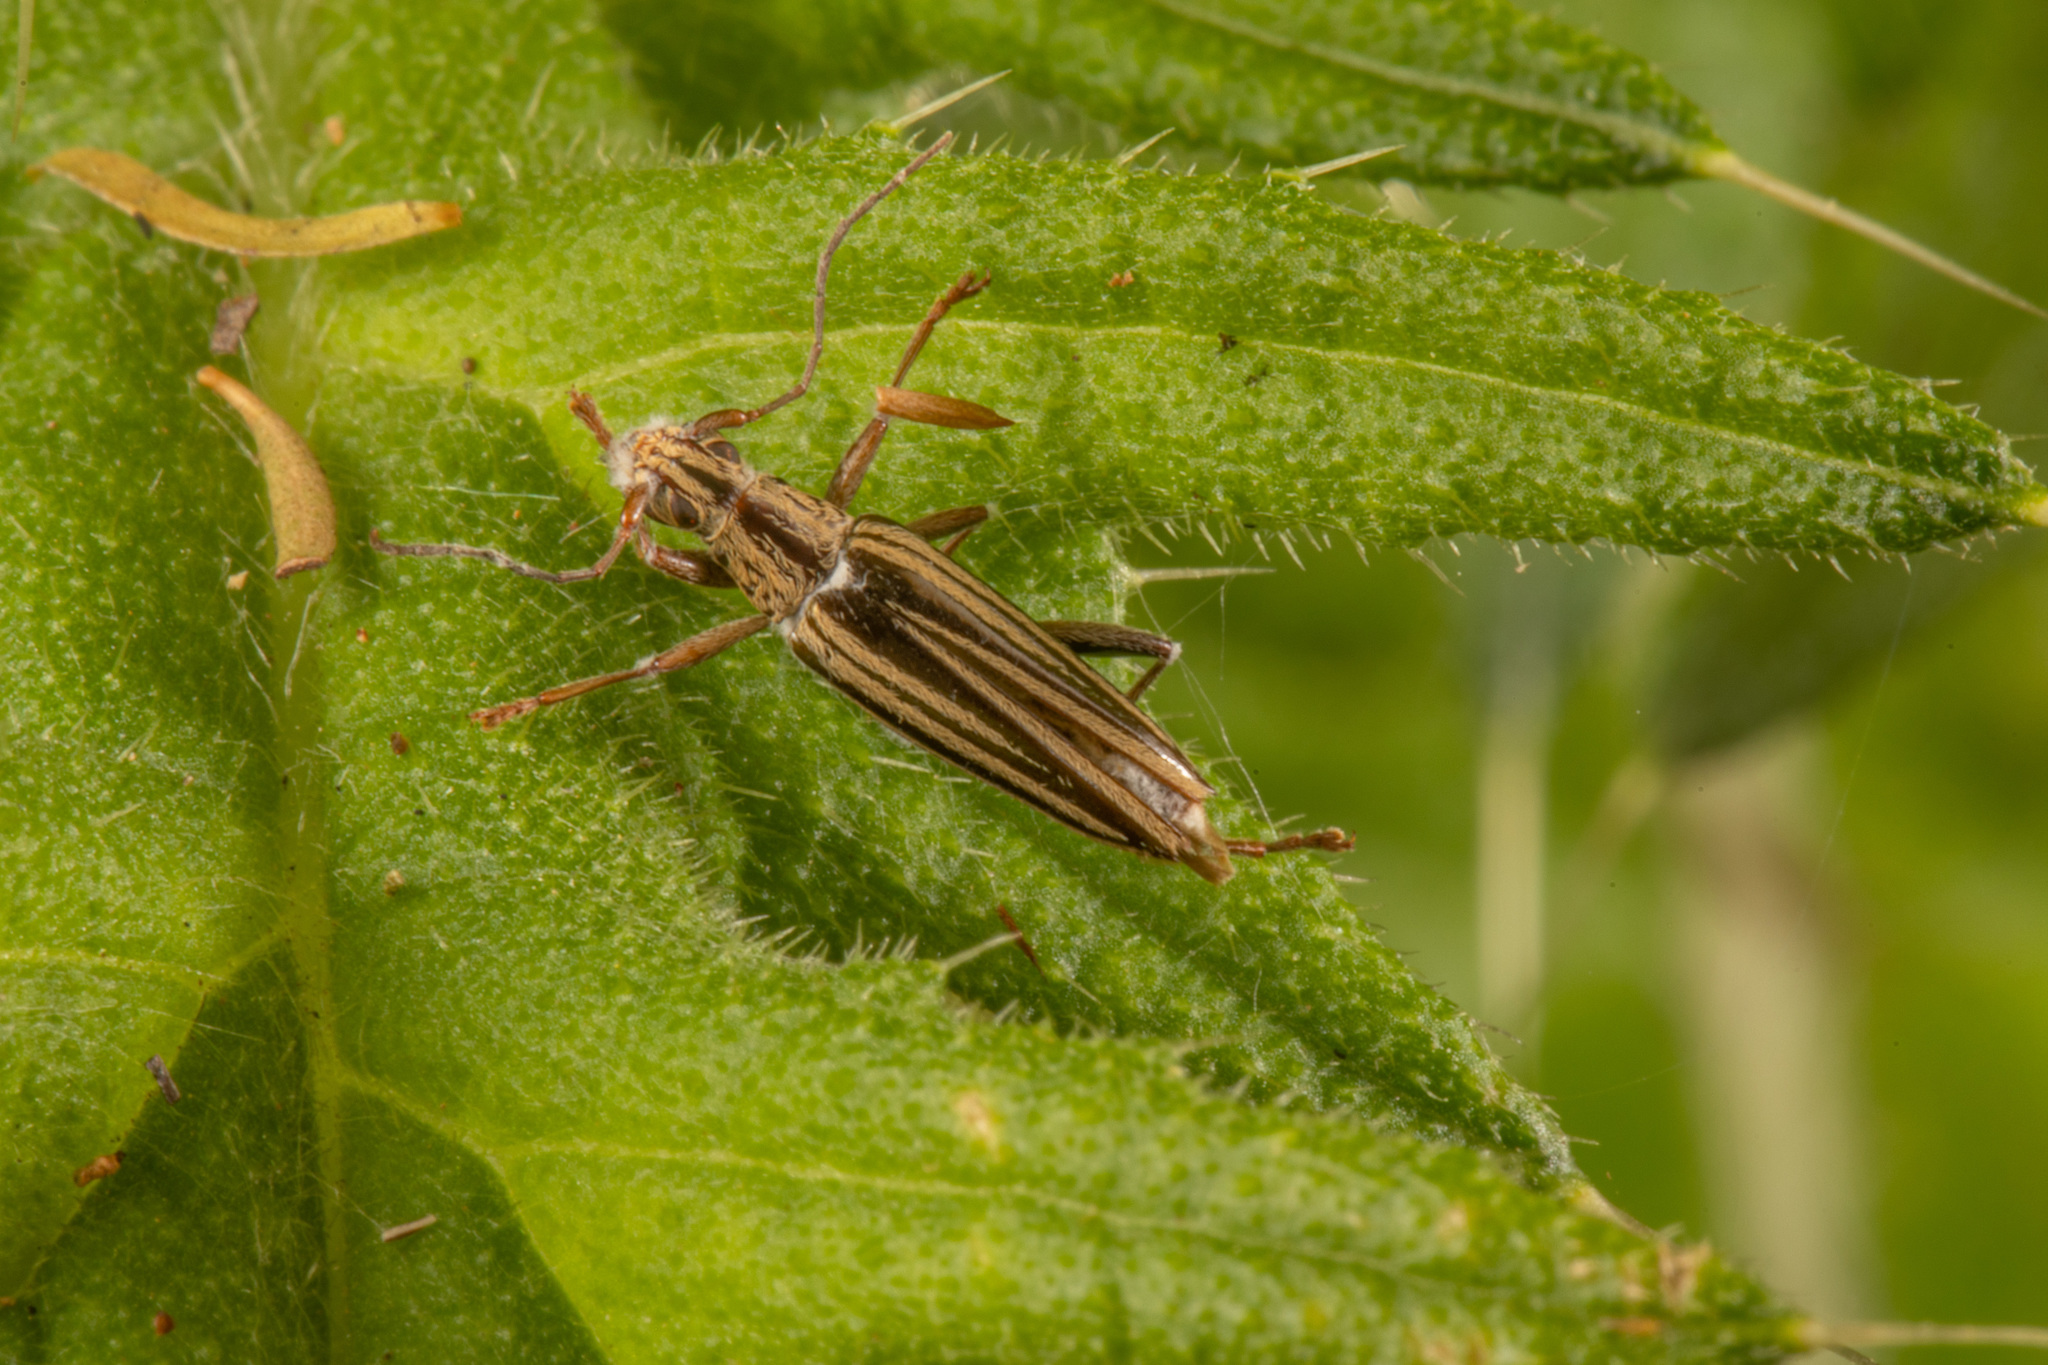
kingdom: Animalia
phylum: Arthropoda
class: Insecta
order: Coleoptera
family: Cerambycidae
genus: Coptomma
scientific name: Coptomma sulcatum
